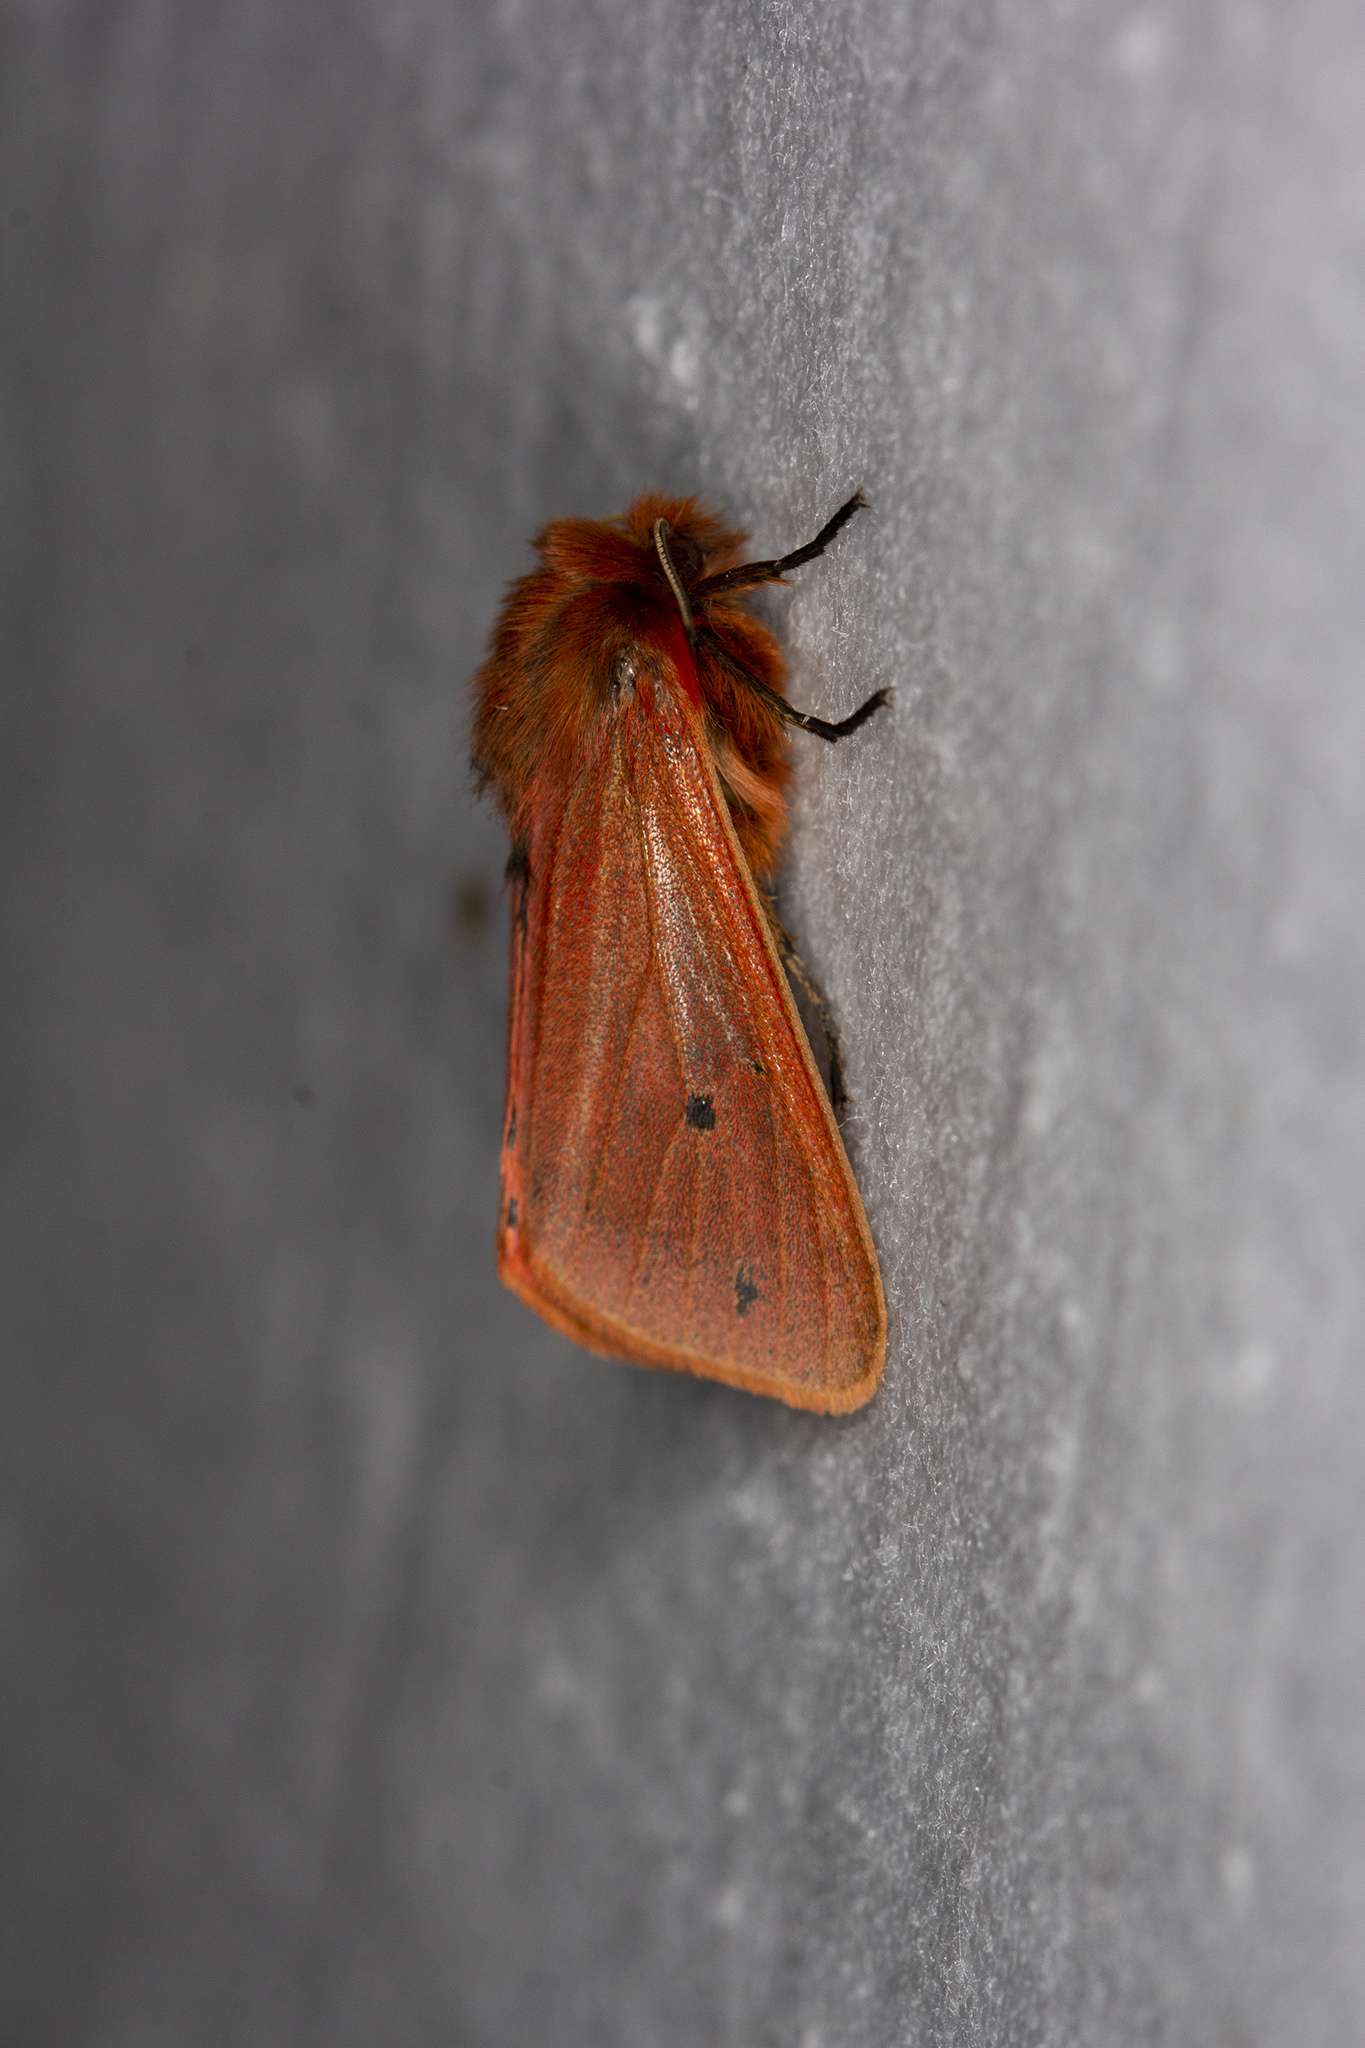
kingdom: Animalia
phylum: Arthropoda
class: Insecta
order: Lepidoptera
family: Erebidae
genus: Phragmatobia
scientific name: Phragmatobia fuliginosa
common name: Ruby tiger
